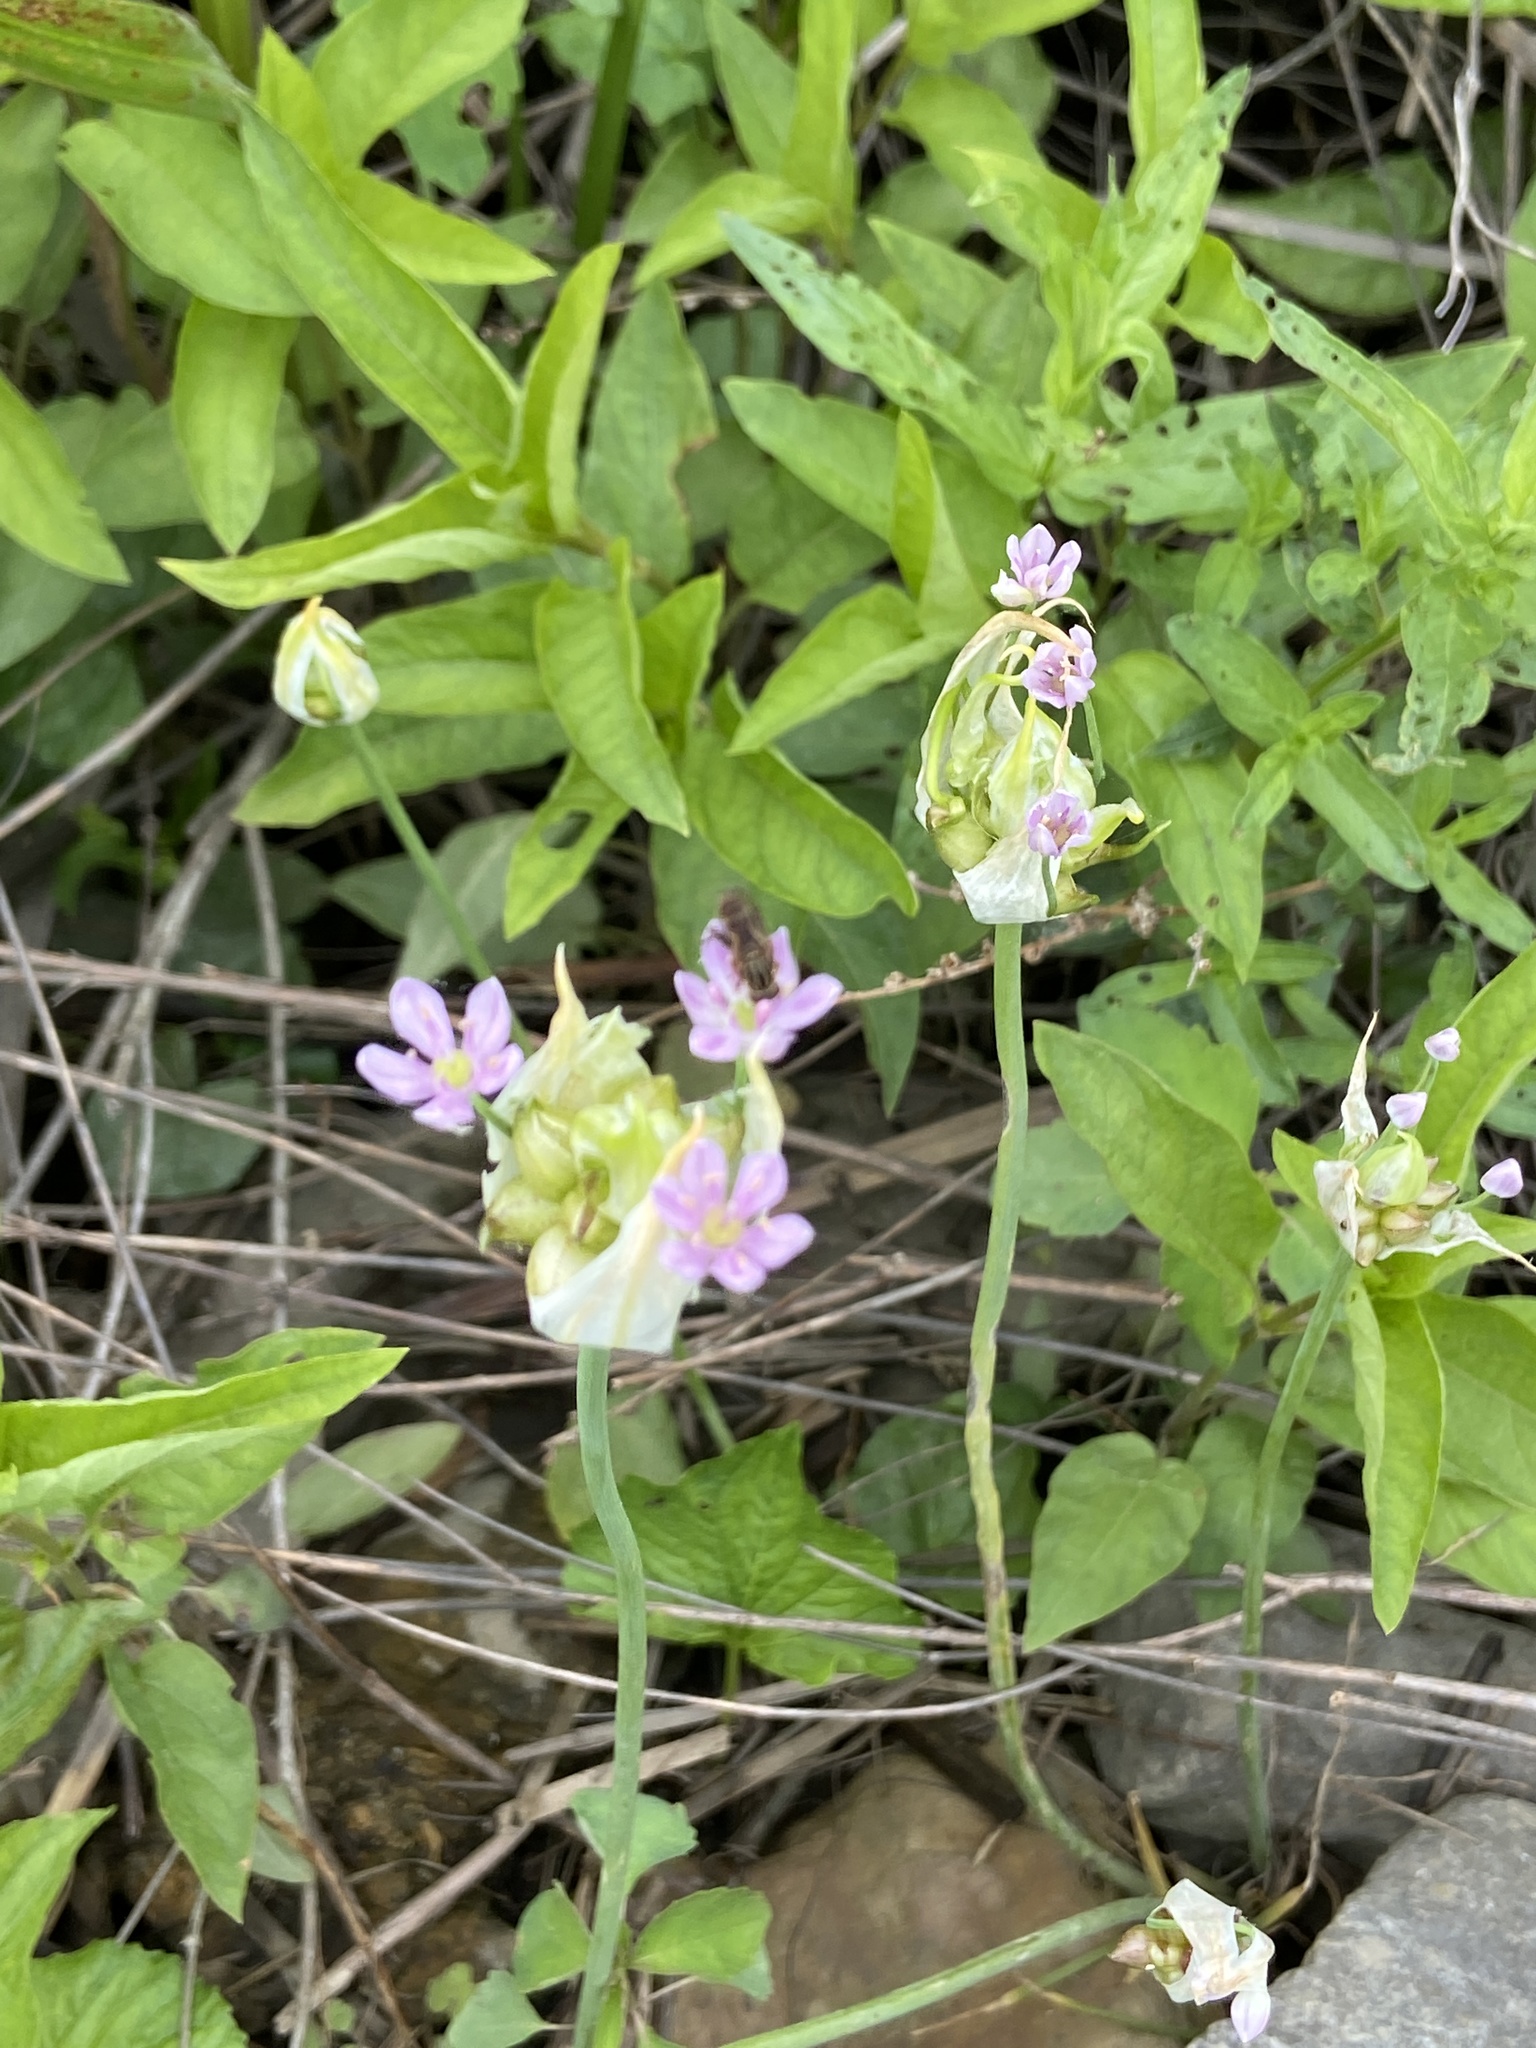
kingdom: Plantae
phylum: Tracheophyta
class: Liliopsida
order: Asparagales
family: Amaryllidaceae
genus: Allium
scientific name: Allium canadense
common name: Meadow garlic
